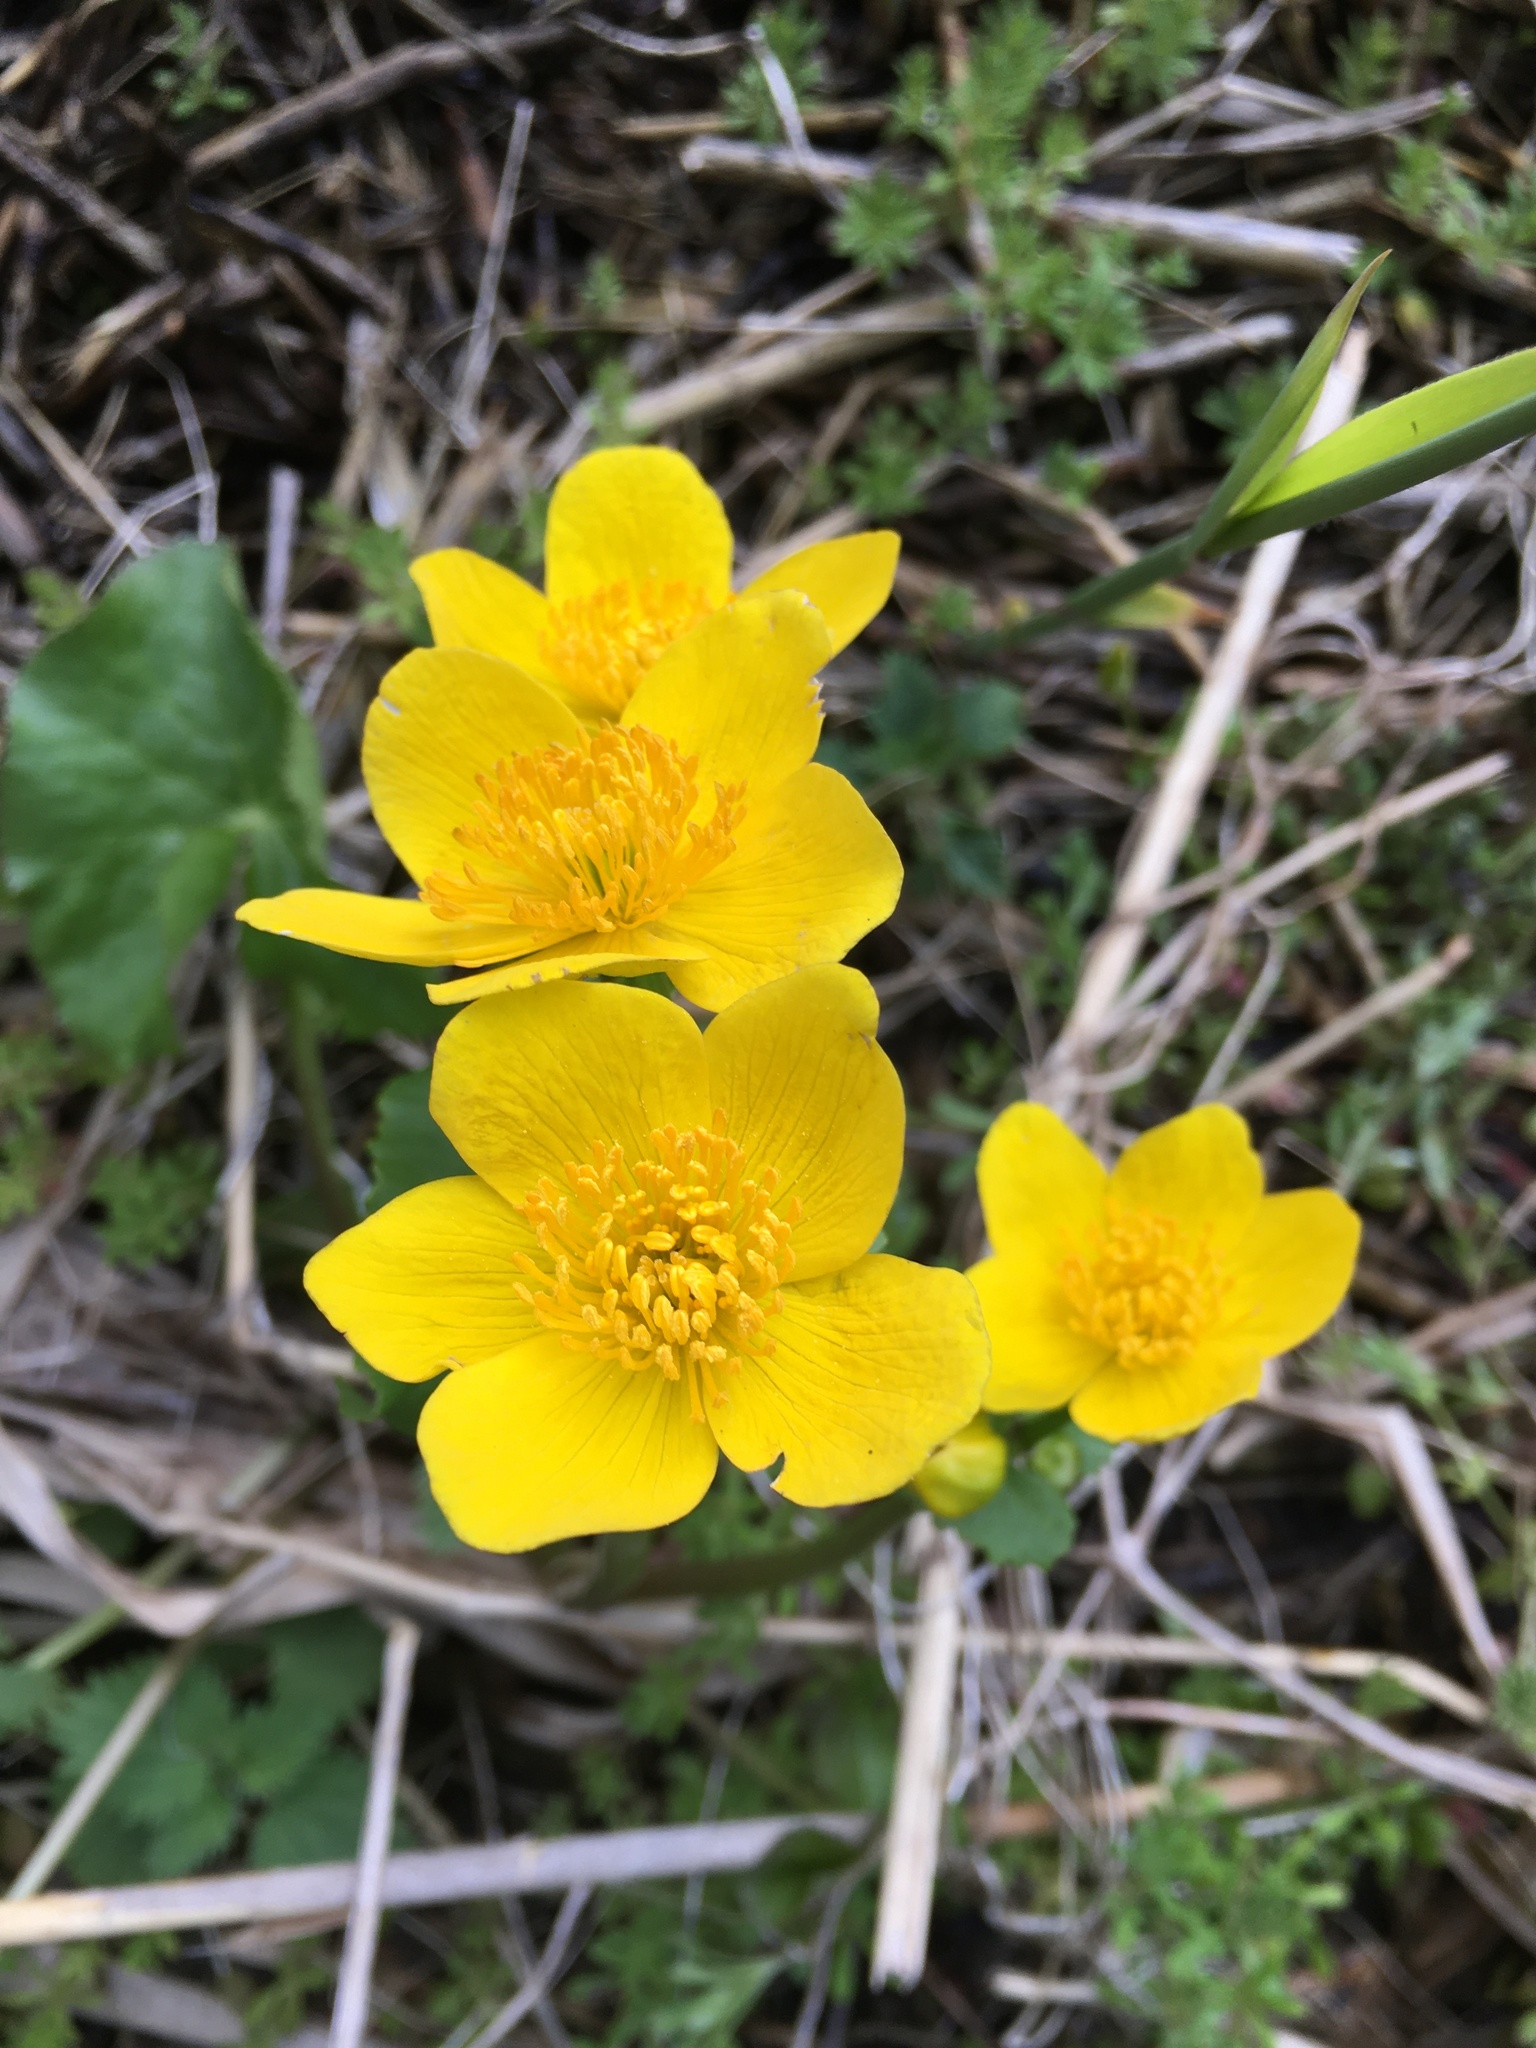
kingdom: Plantae
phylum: Tracheophyta
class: Magnoliopsida
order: Ranunculales
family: Ranunculaceae
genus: Caltha
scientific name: Caltha palustris
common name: Marsh marigold
